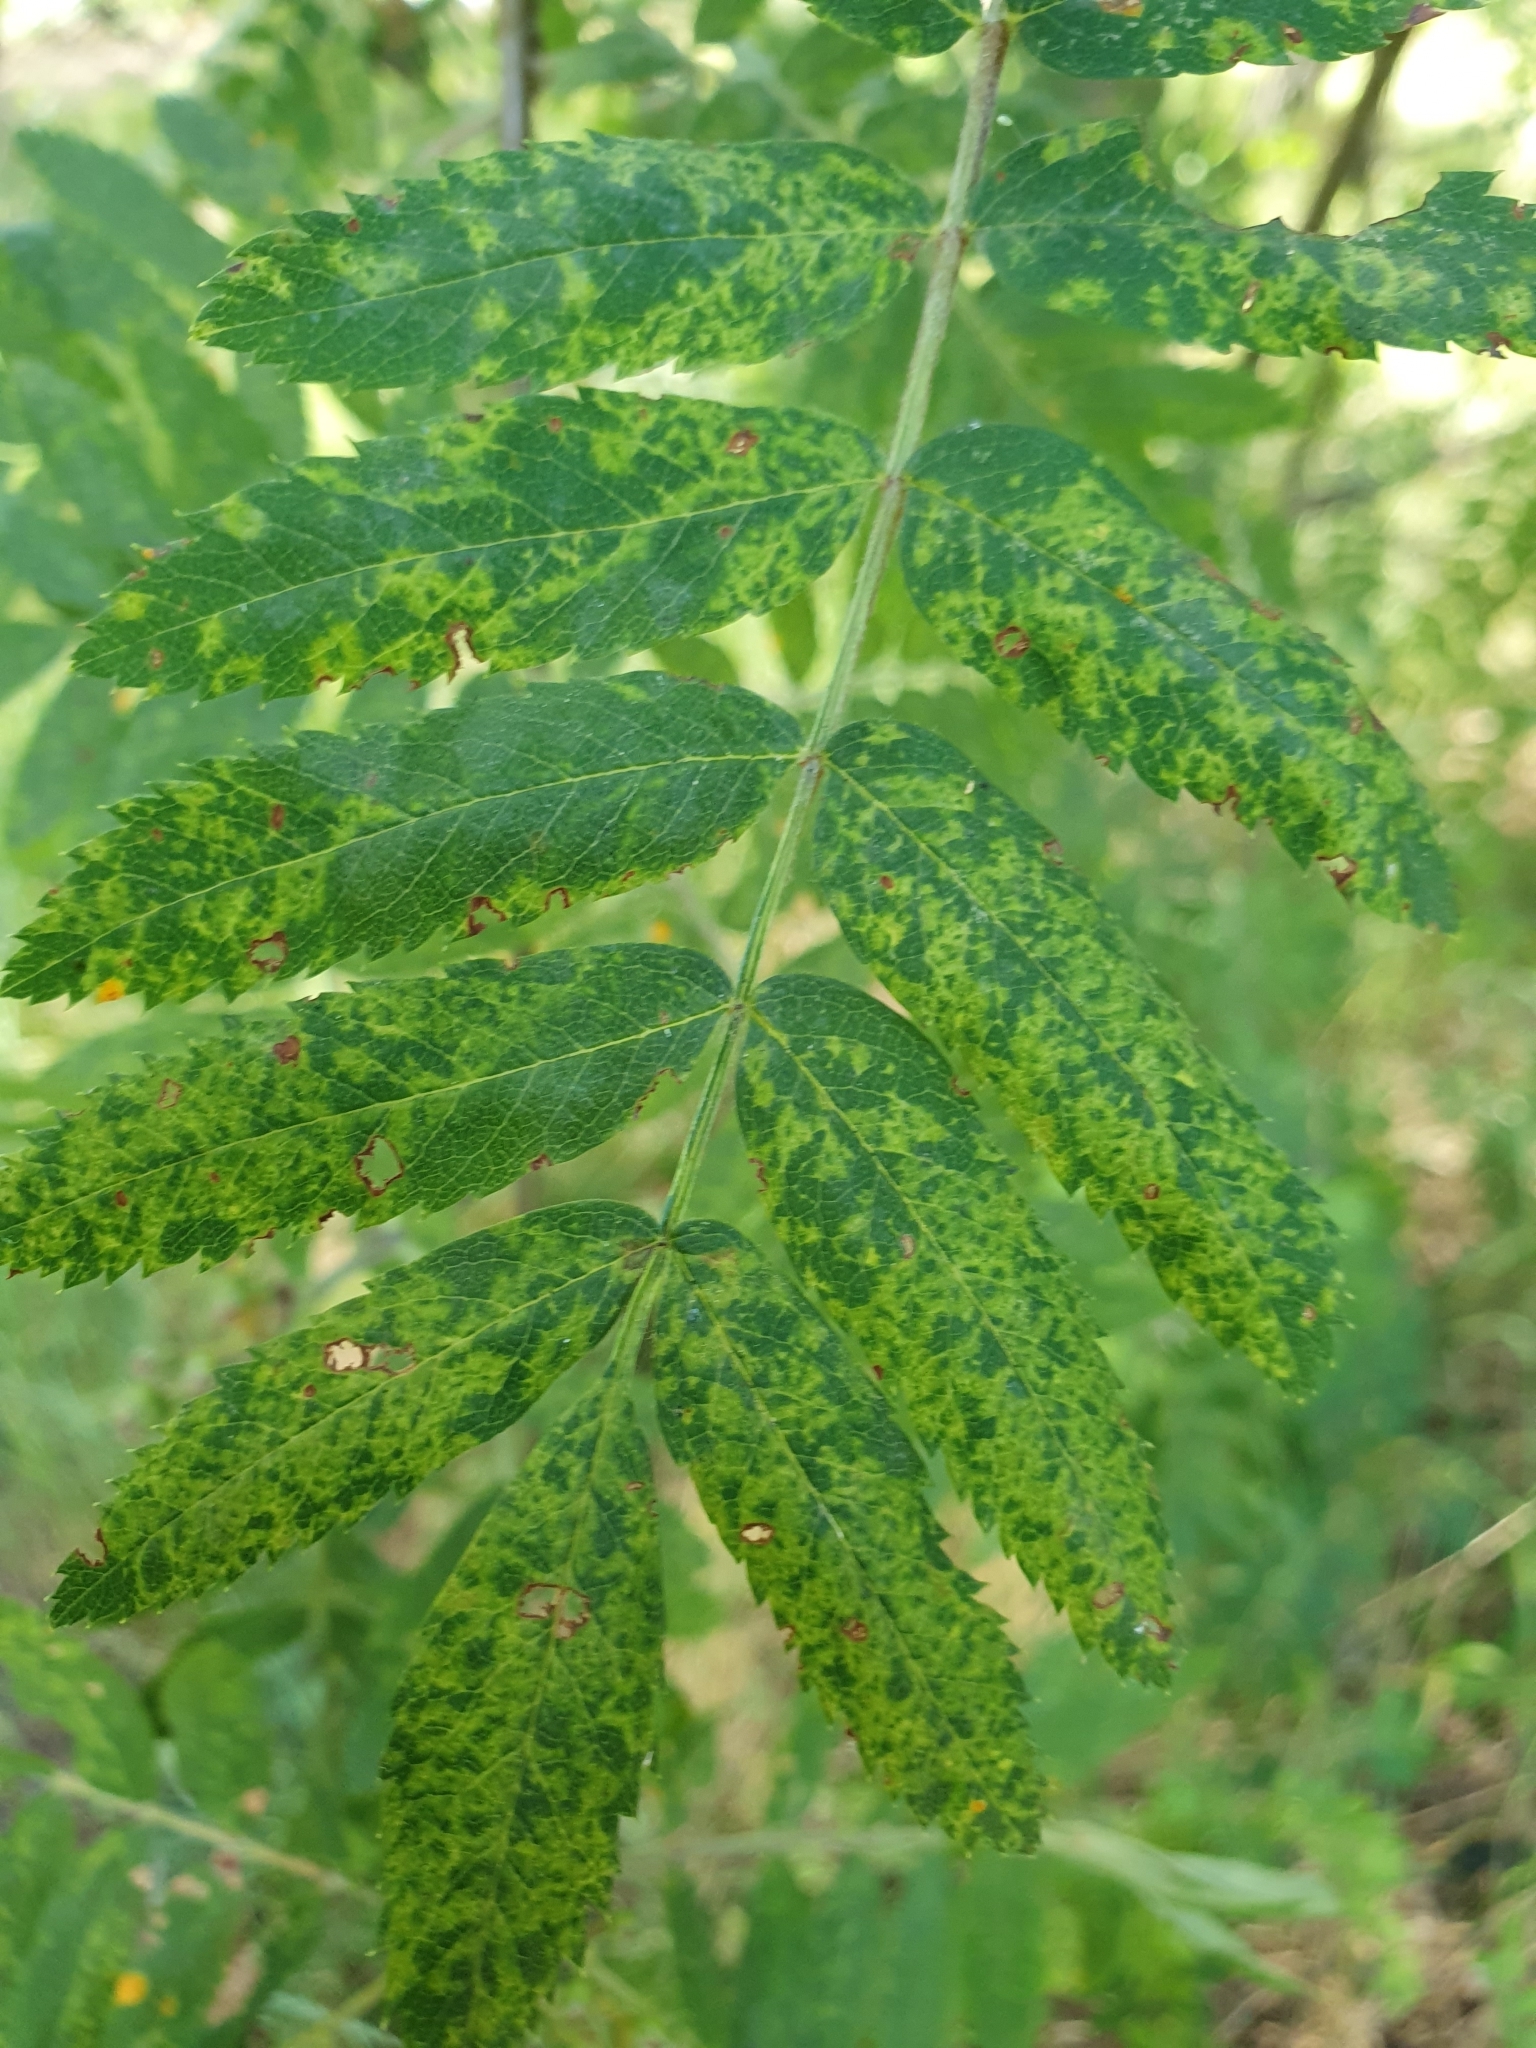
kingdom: Viruses
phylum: Negarnaviricota
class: Ellioviricetes
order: Bunyavirales
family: Fimoviridae
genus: Emaravirus
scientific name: Emaravirus sorbi
